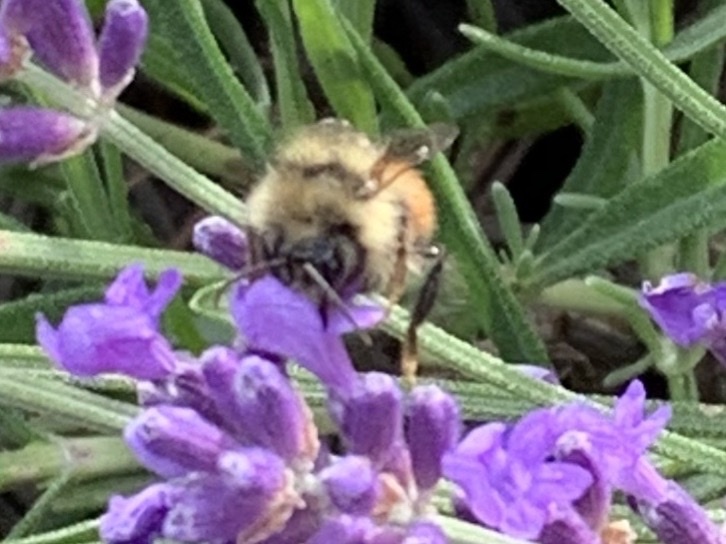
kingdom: Animalia
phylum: Arthropoda
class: Insecta
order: Hymenoptera
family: Apidae
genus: Bombus
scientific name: Bombus melanopygus
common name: Black tail bumble bee
